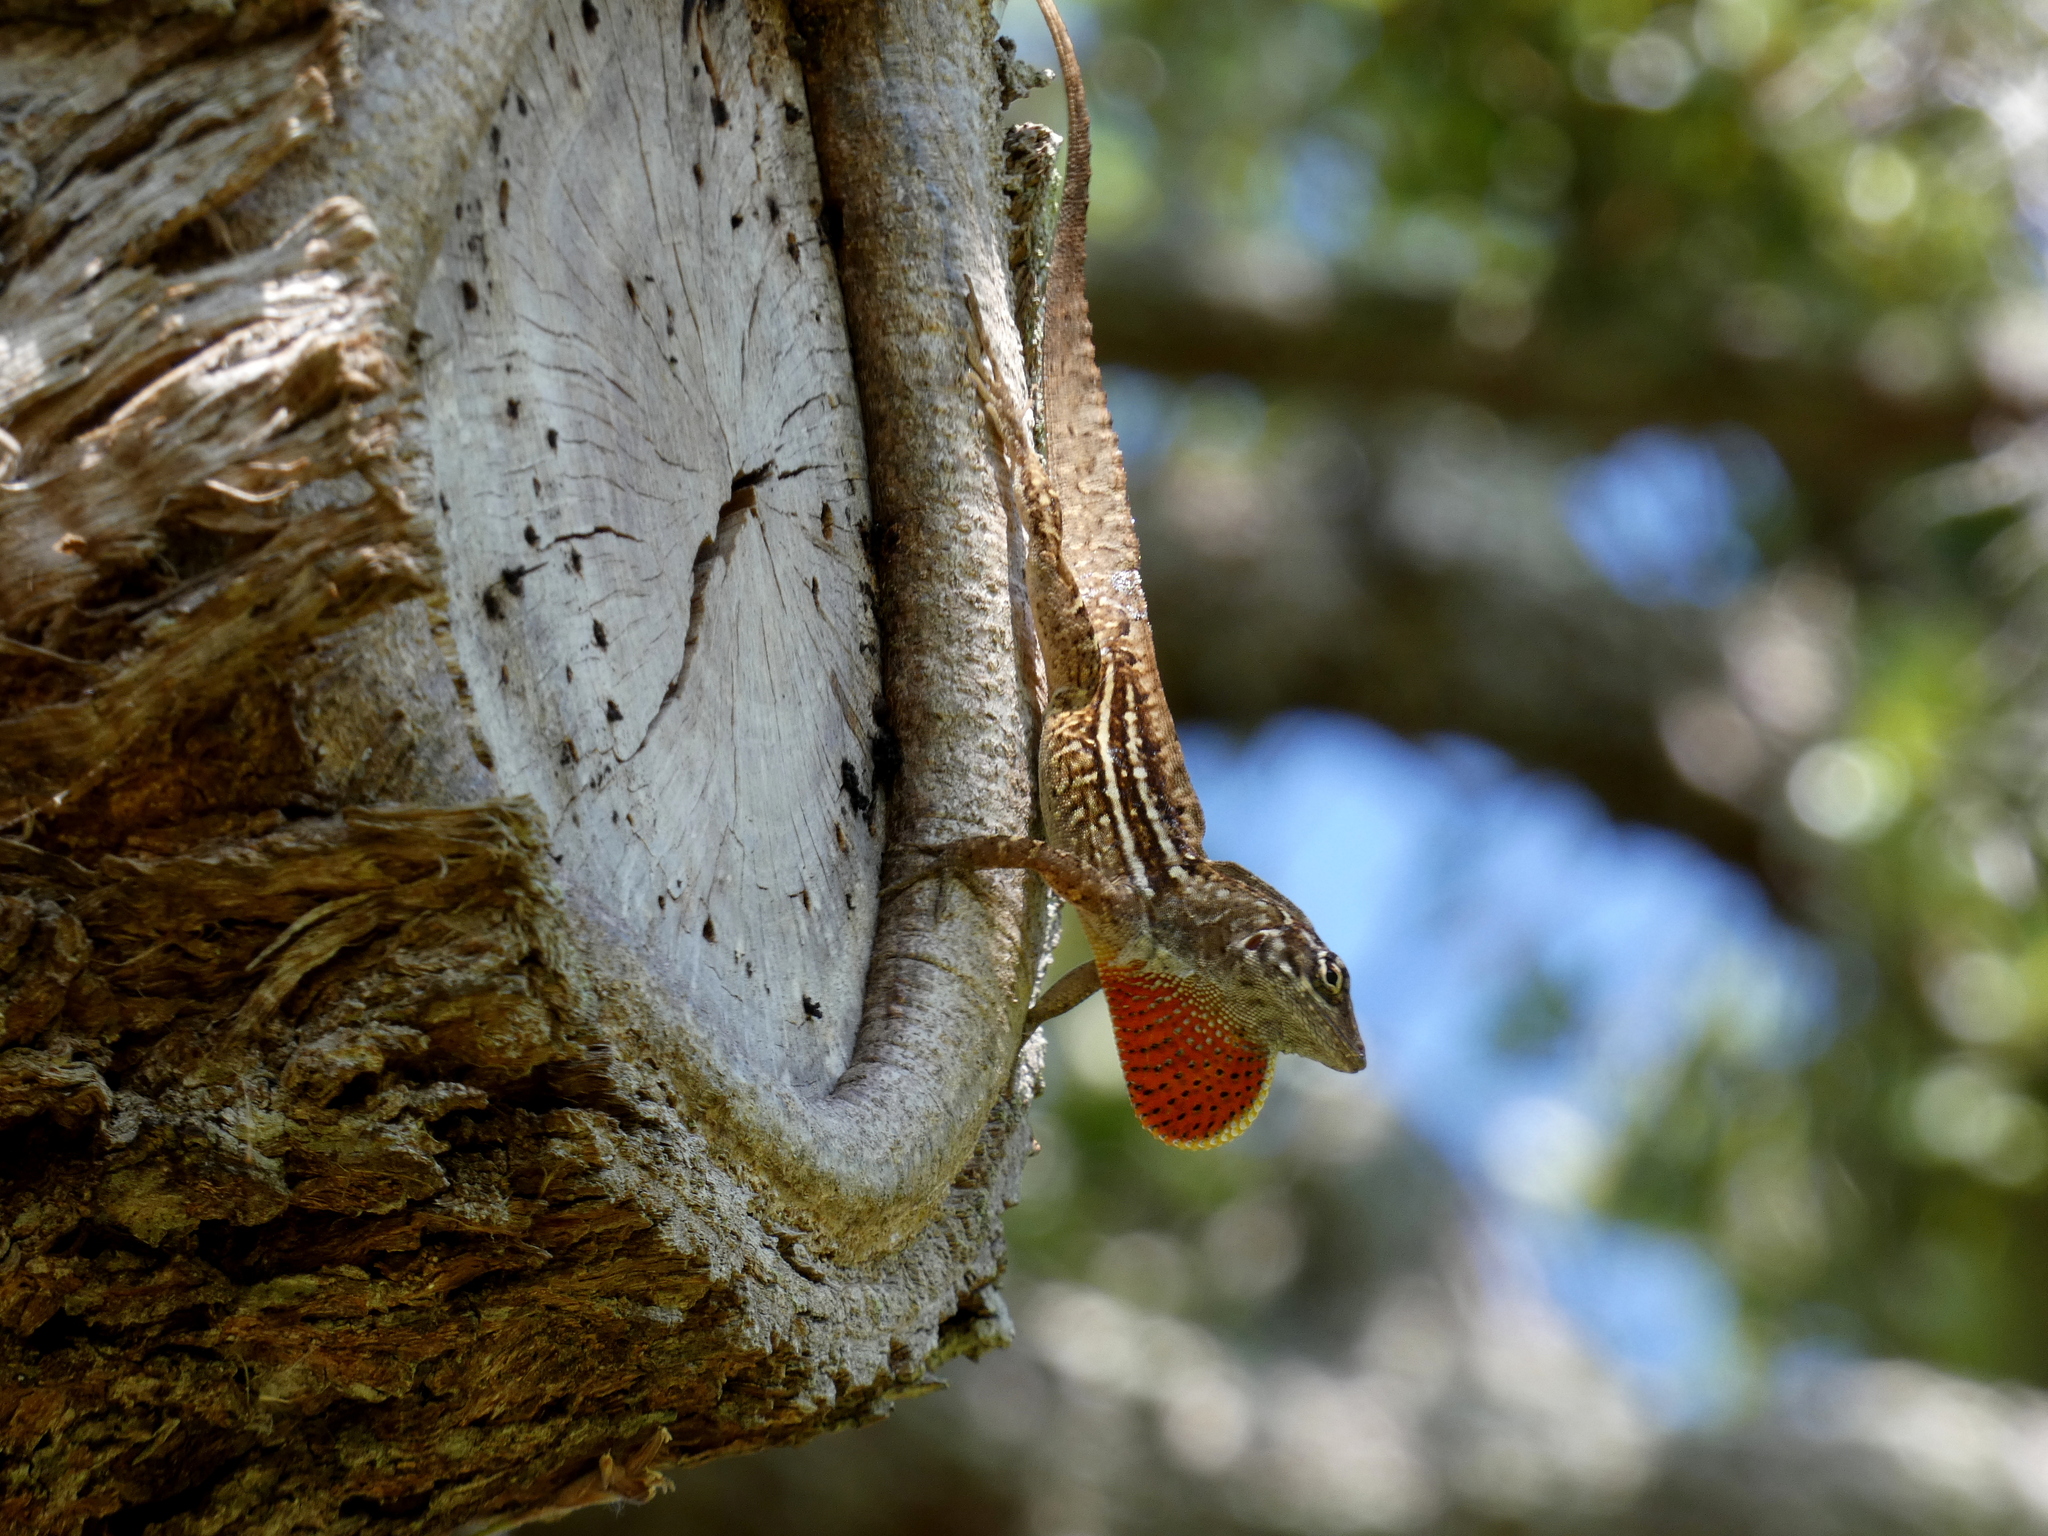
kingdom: Animalia
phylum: Chordata
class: Squamata
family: Dactyloidae
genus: Anolis
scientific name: Anolis sagrei
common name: Brown anole
